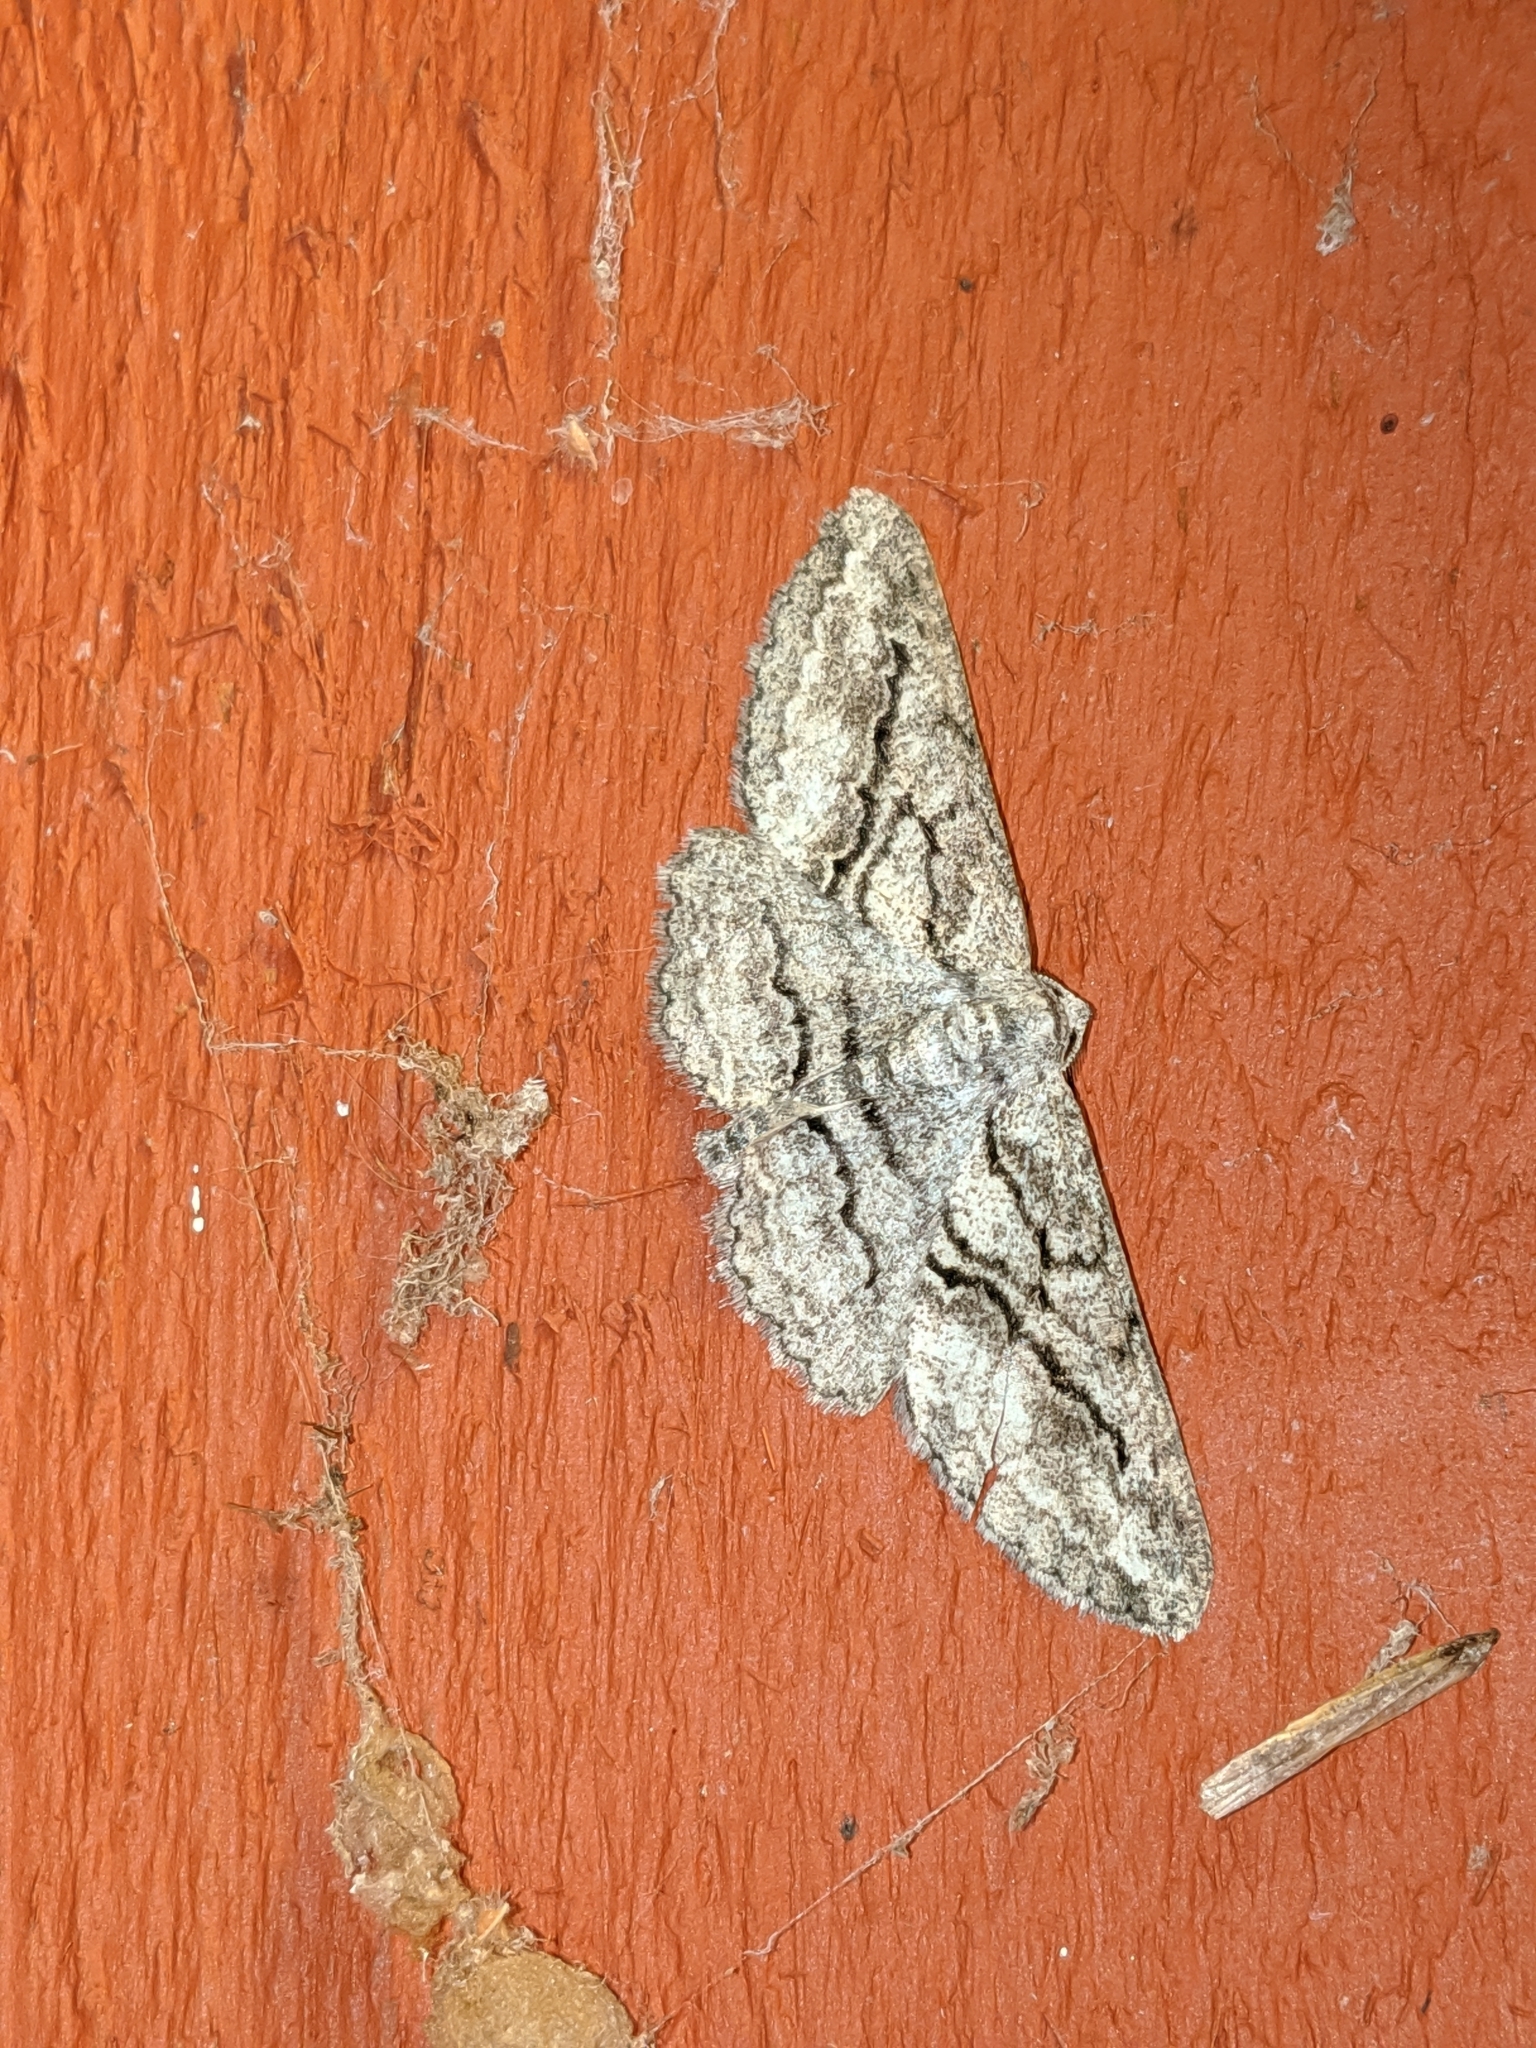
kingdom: Animalia
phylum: Arthropoda
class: Insecta
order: Lepidoptera
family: Geometridae
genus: Stenoporpia
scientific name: Stenoporpia excelsaria
